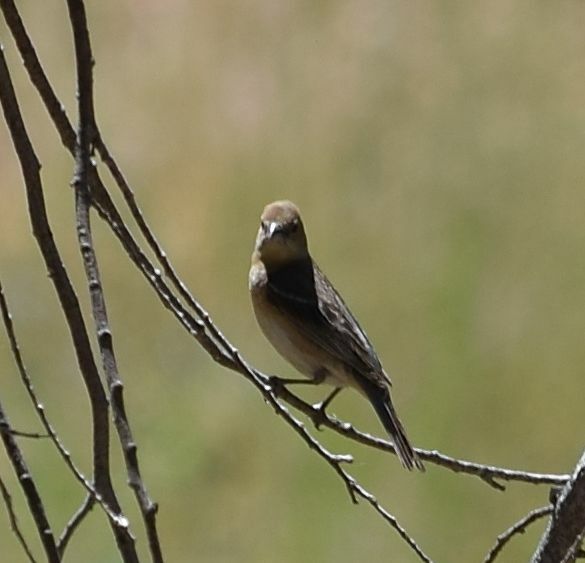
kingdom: Animalia
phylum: Chordata
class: Aves
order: Passeriformes
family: Cardinalidae
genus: Passerina
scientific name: Passerina amoena
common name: Lazuli bunting
